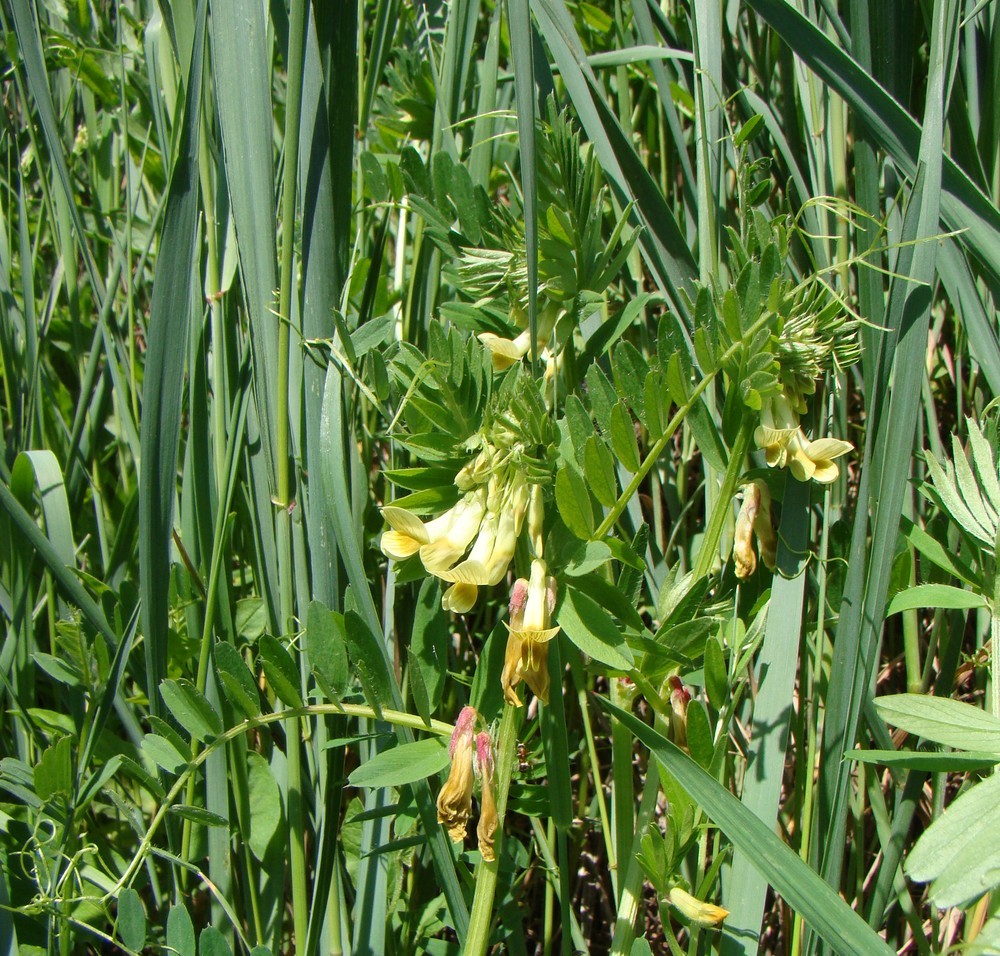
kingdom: Plantae
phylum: Tracheophyta
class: Magnoliopsida
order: Fabales
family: Fabaceae
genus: Vicia
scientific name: Vicia ciliatula
